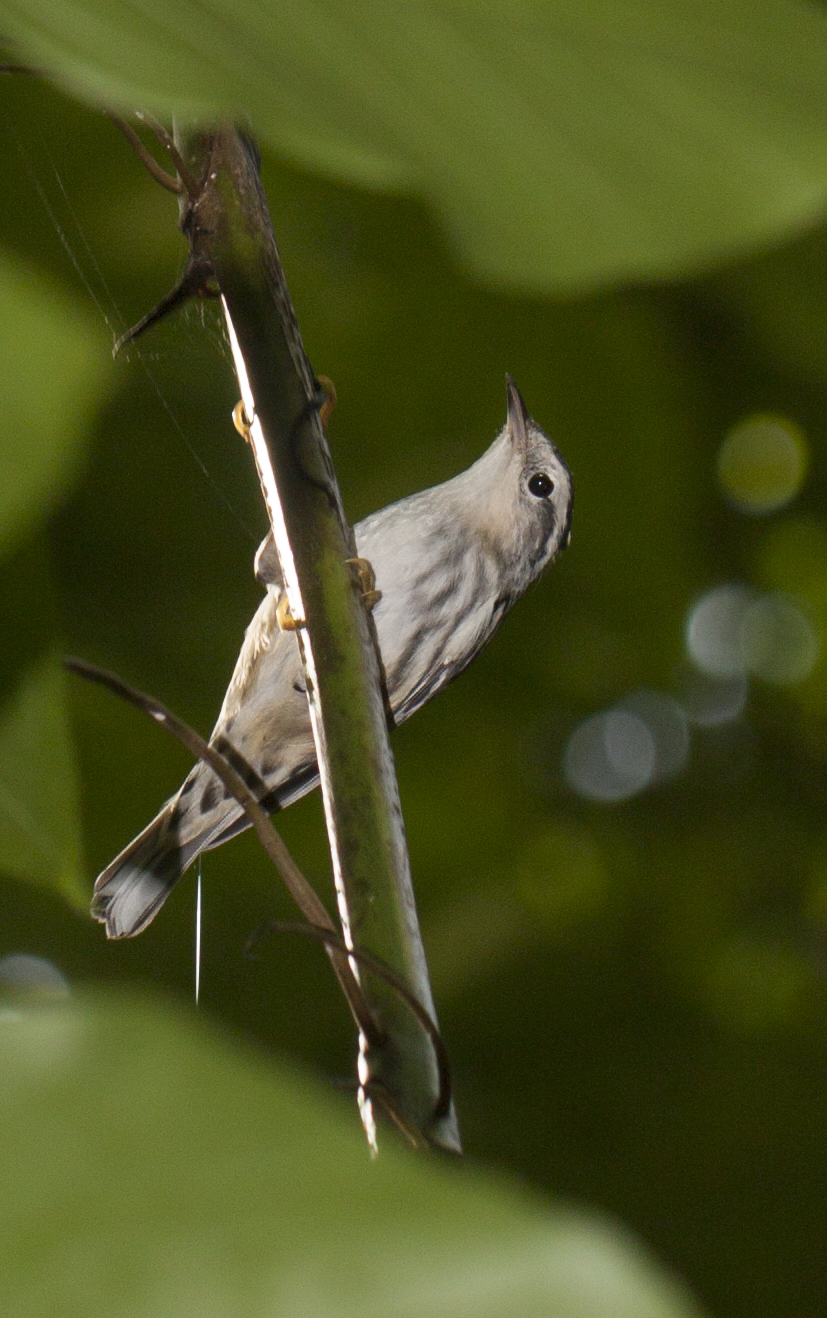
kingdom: Animalia
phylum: Chordata
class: Aves
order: Passeriformes
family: Parulidae
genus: Mniotilta
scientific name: Mniotilta varia
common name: Black-and-white warbler
